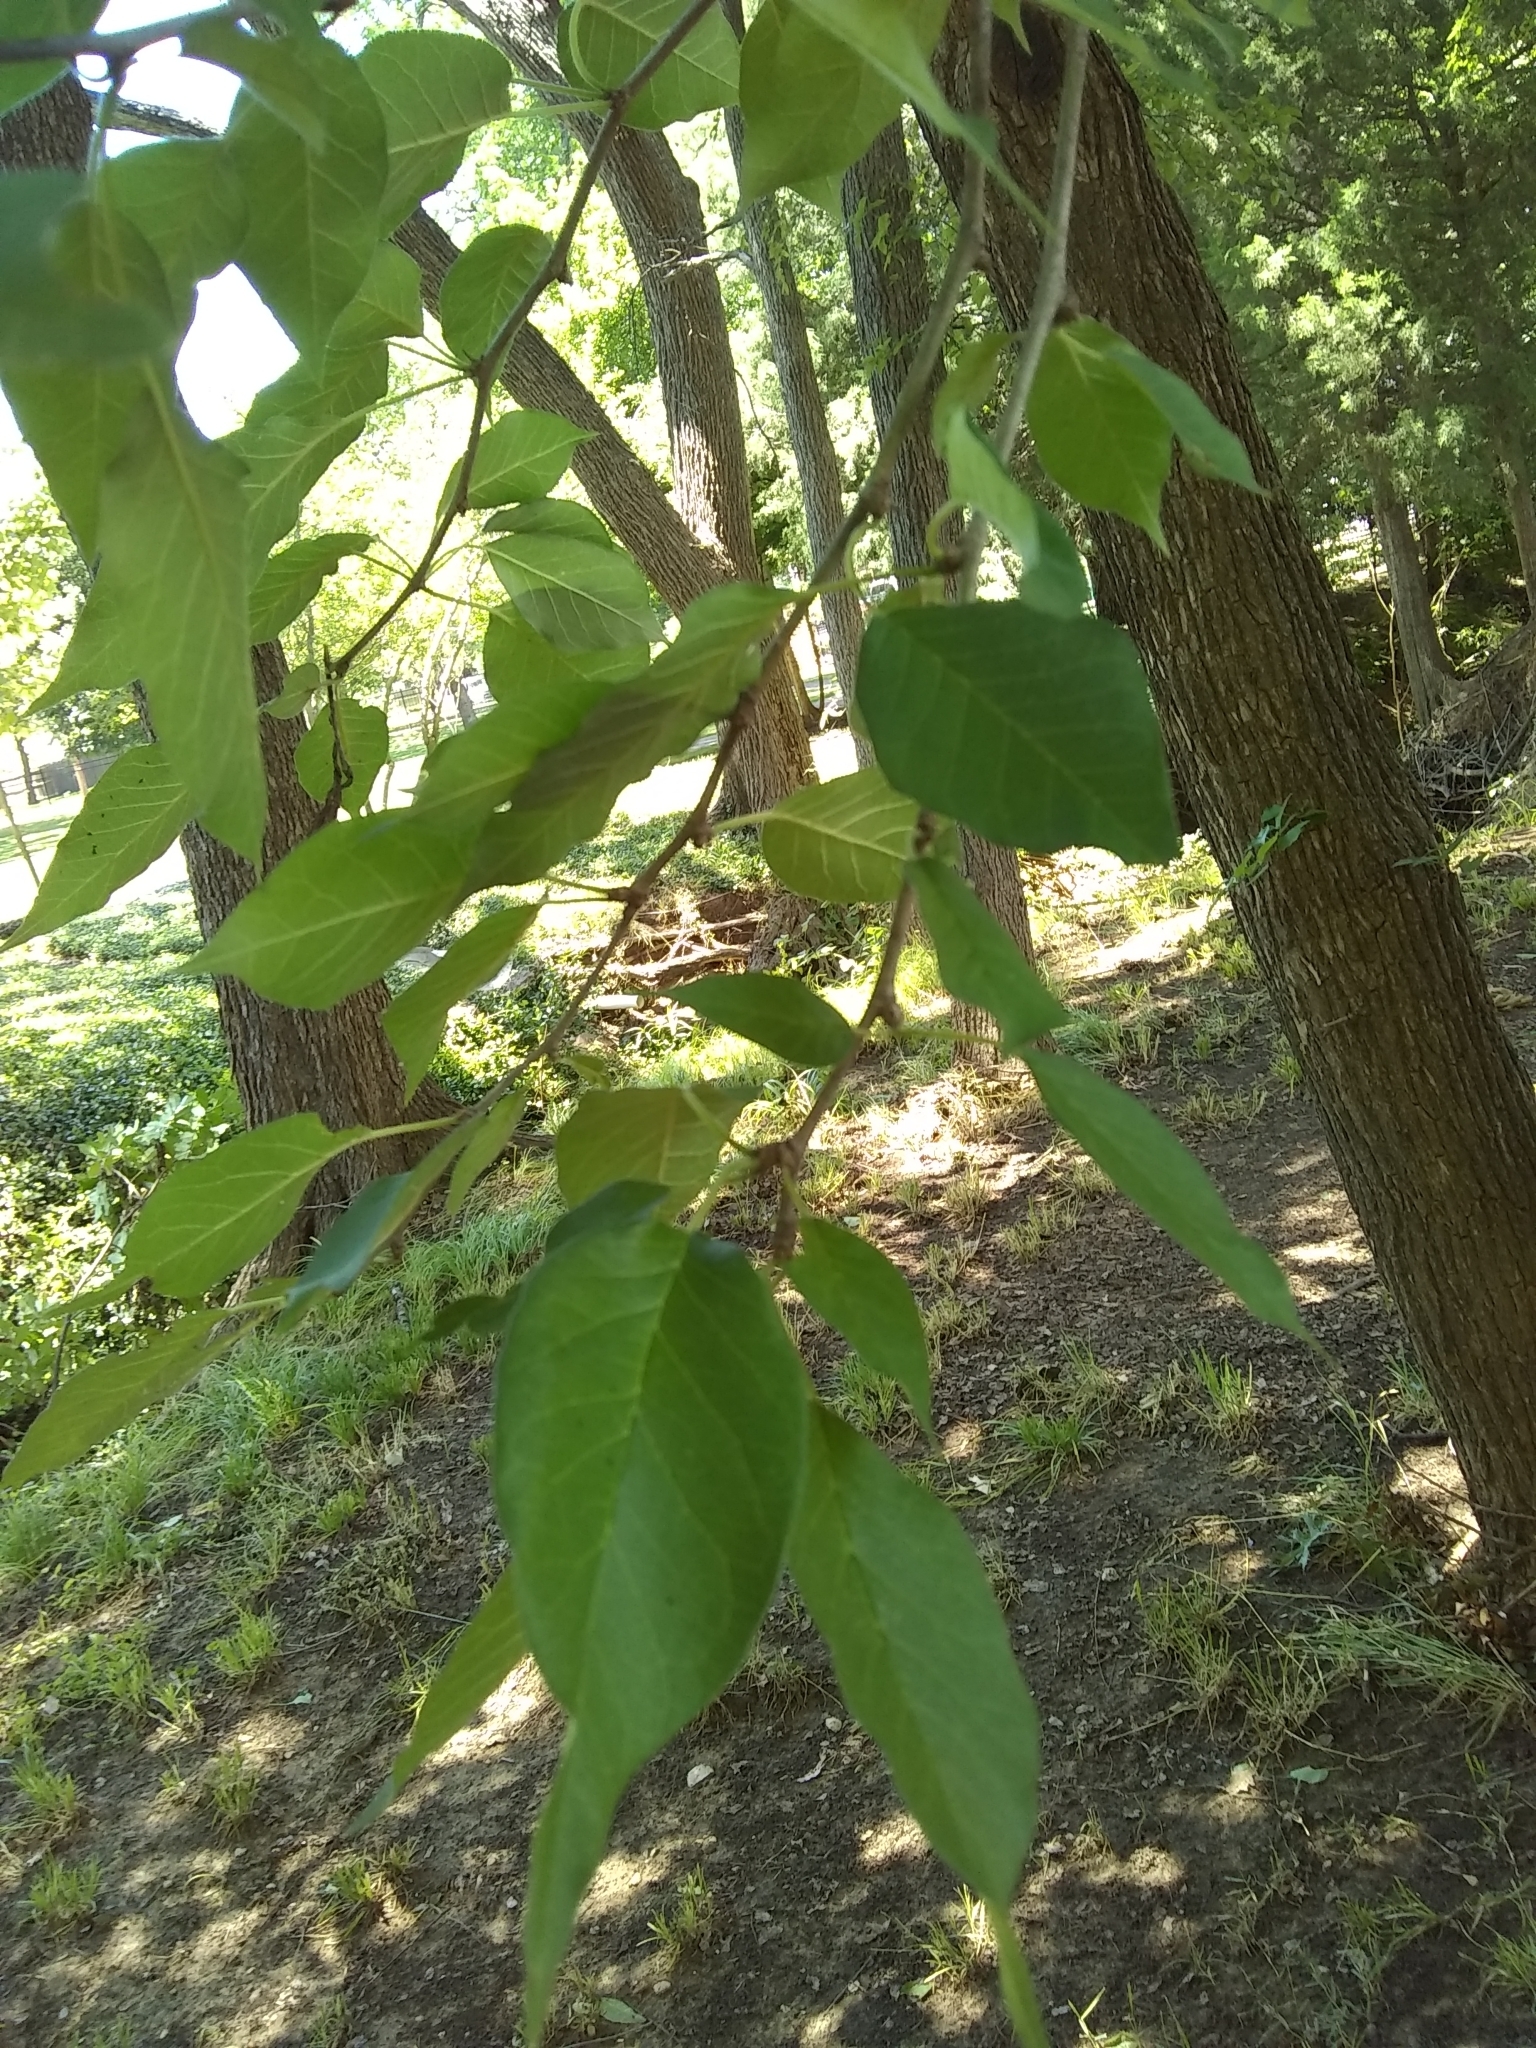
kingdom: Plantae
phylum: Tracheophyta
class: Magnoliopsida
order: Rosales
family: Moraceae
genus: Maclura
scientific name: Maclura pomifera
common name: Osage-orange
